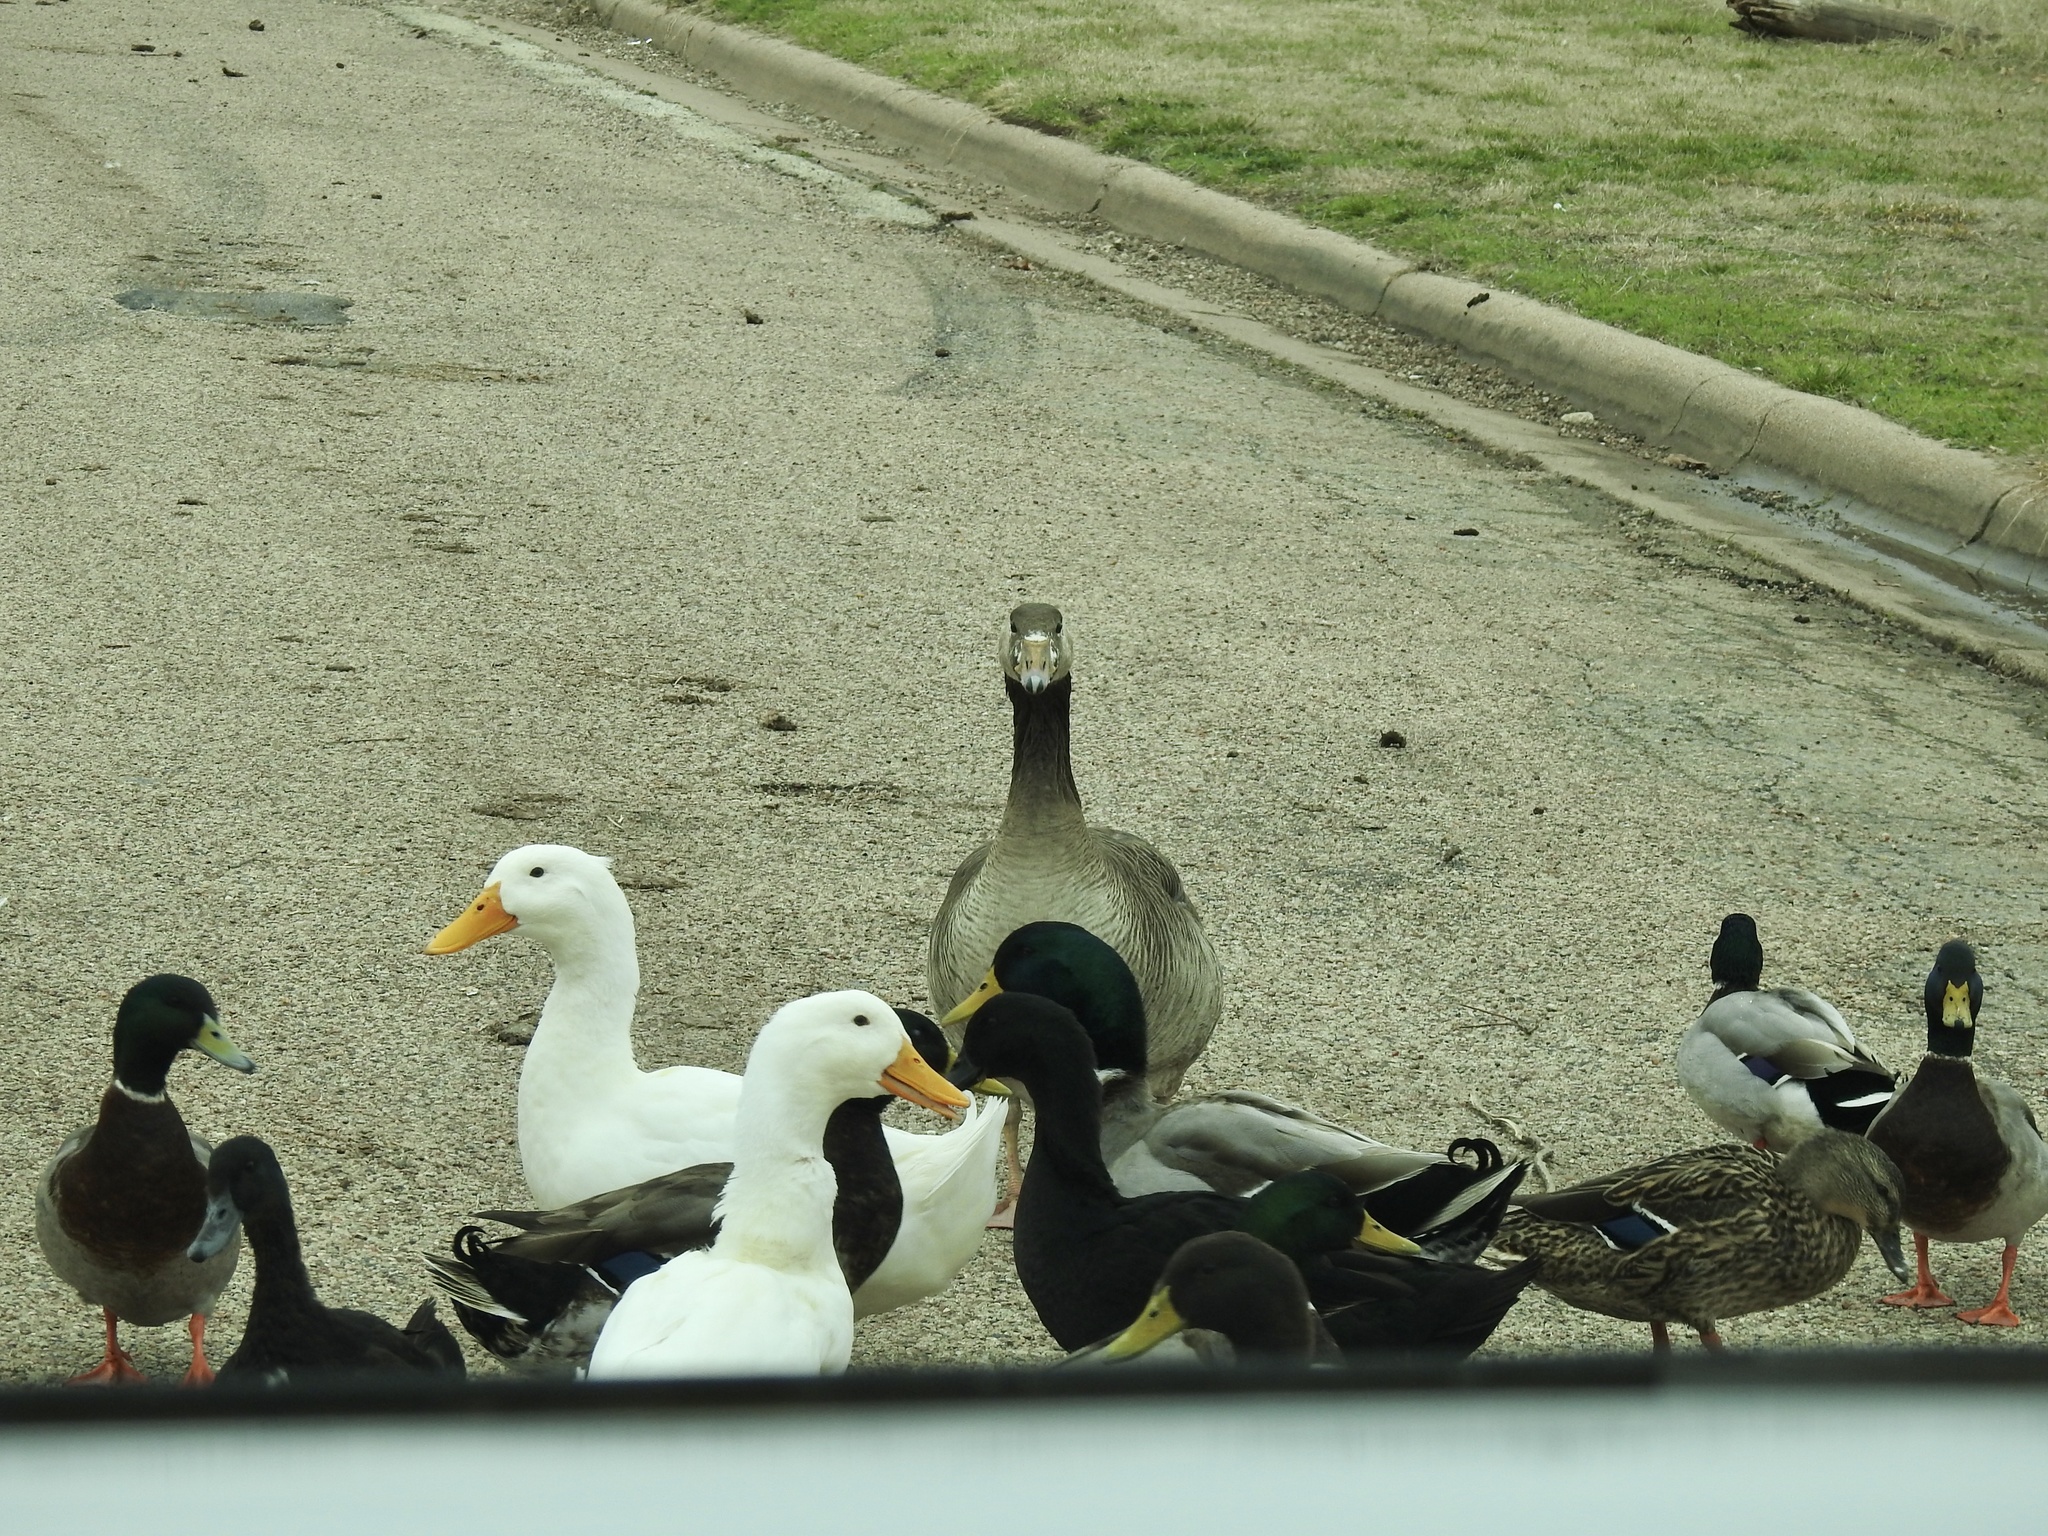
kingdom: Animalia
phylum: Chordata
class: Aves
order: Anseriformes
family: Anatidae
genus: Anas
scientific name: Anas platyrhynchos
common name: Mallard
